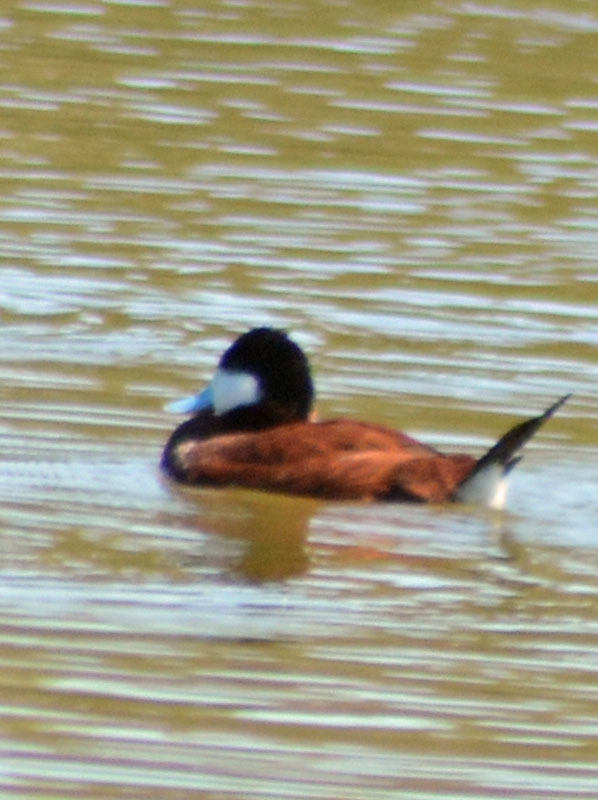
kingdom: Animalia
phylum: Chordata
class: Aves
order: Anseriformes
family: Anatidae
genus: Oxyura
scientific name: Oxyura jamaicensis
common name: Ruddy duck
